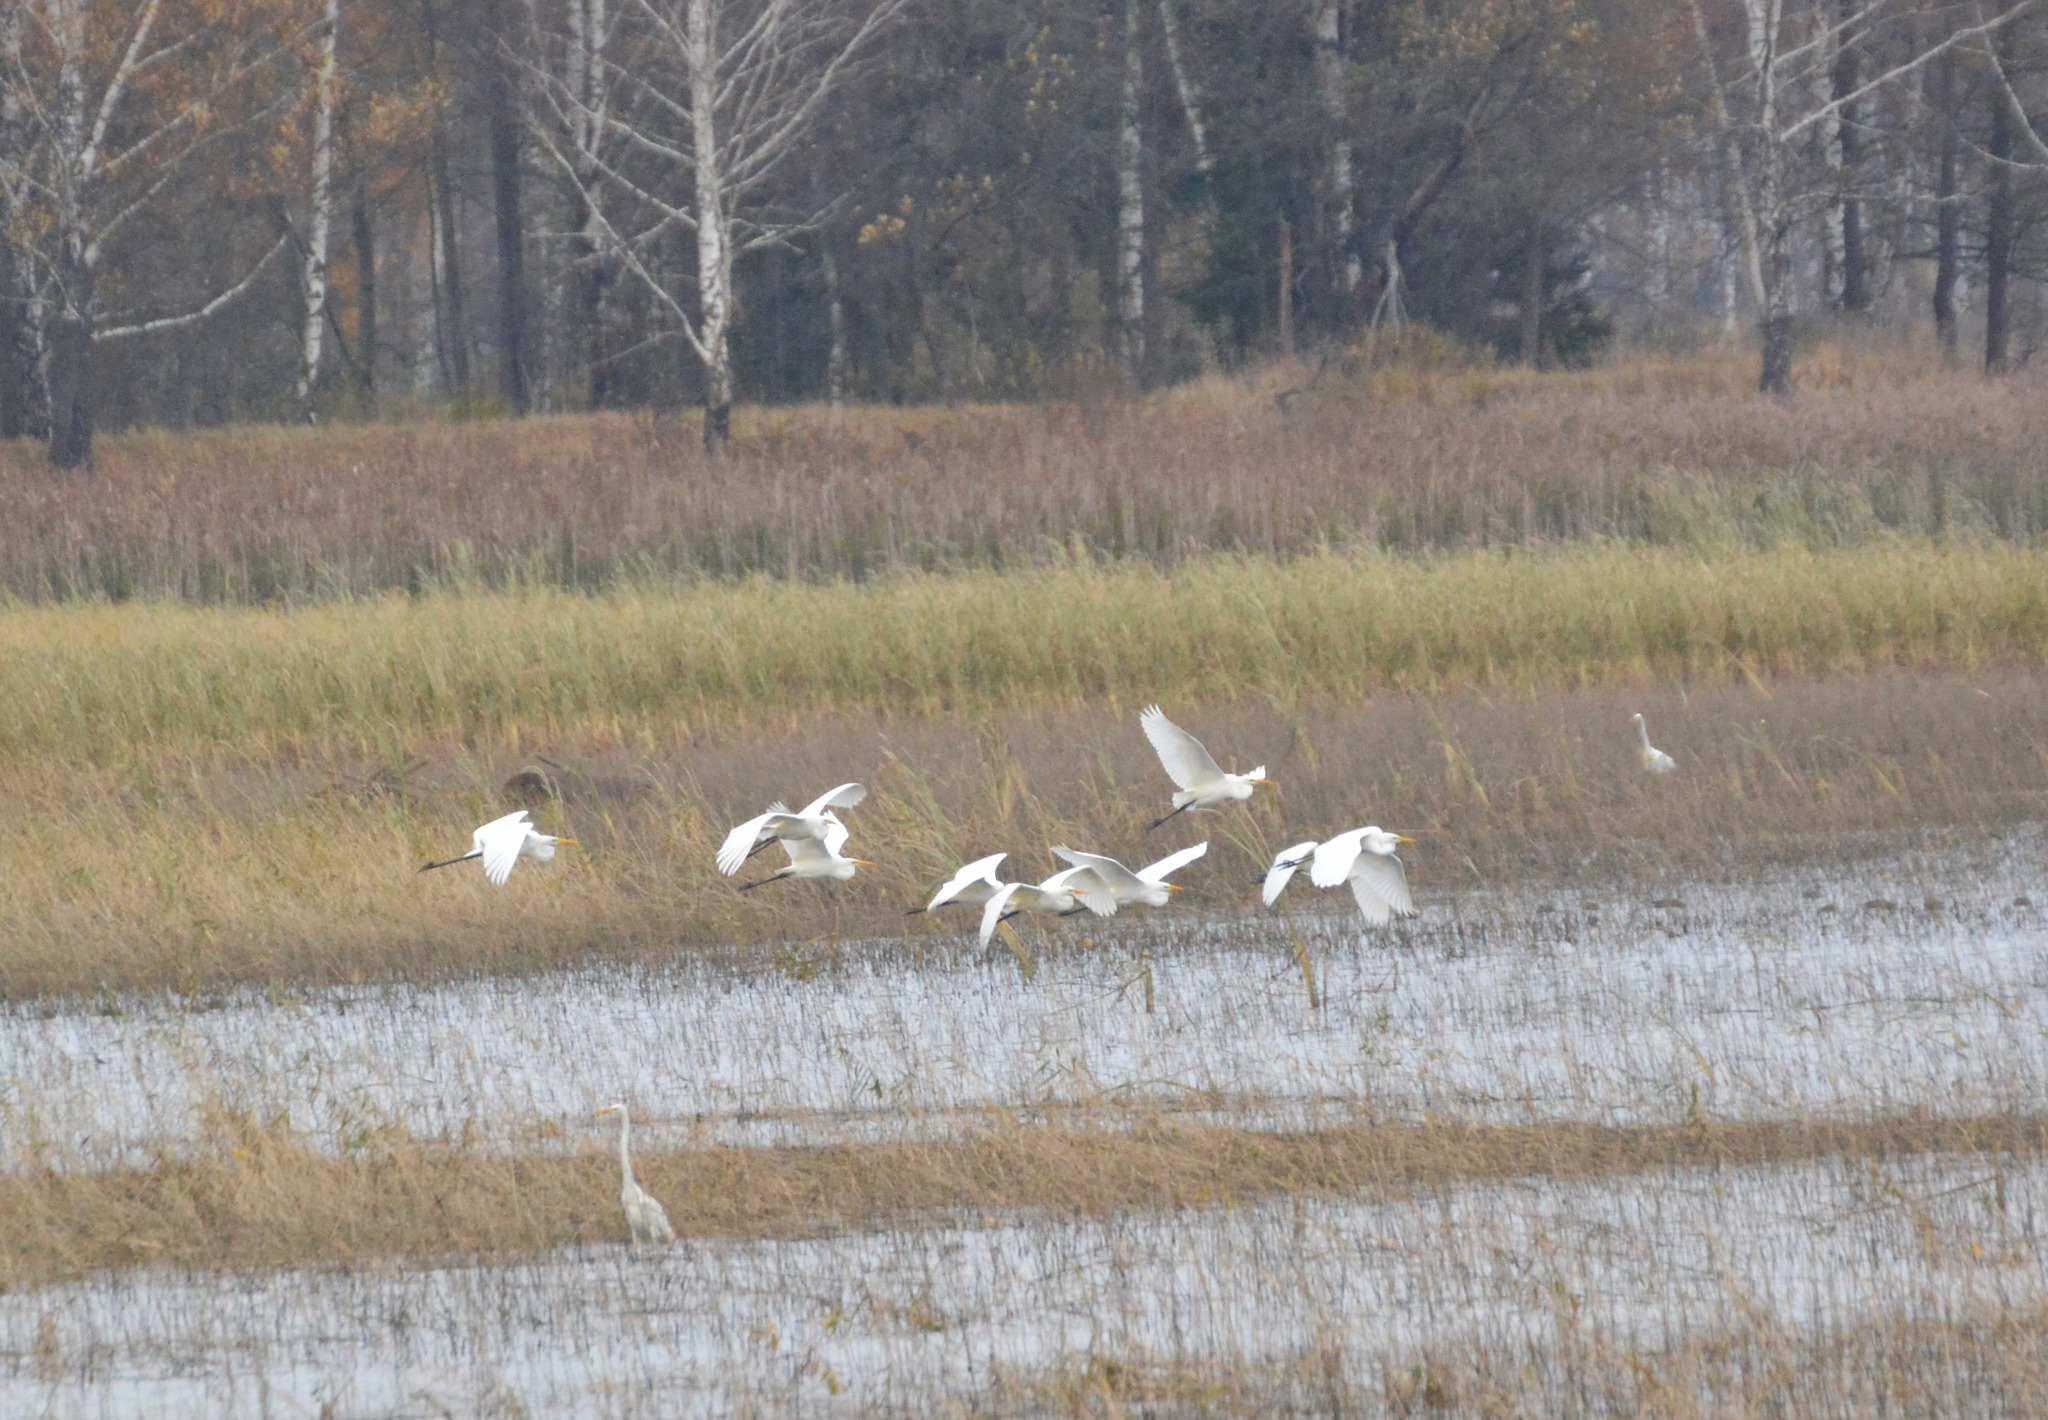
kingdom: Animalia
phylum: Chordata
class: Aves
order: Pelecaniformes
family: Ardeidae
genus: Ardea
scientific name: Ardea alba
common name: Great egret
